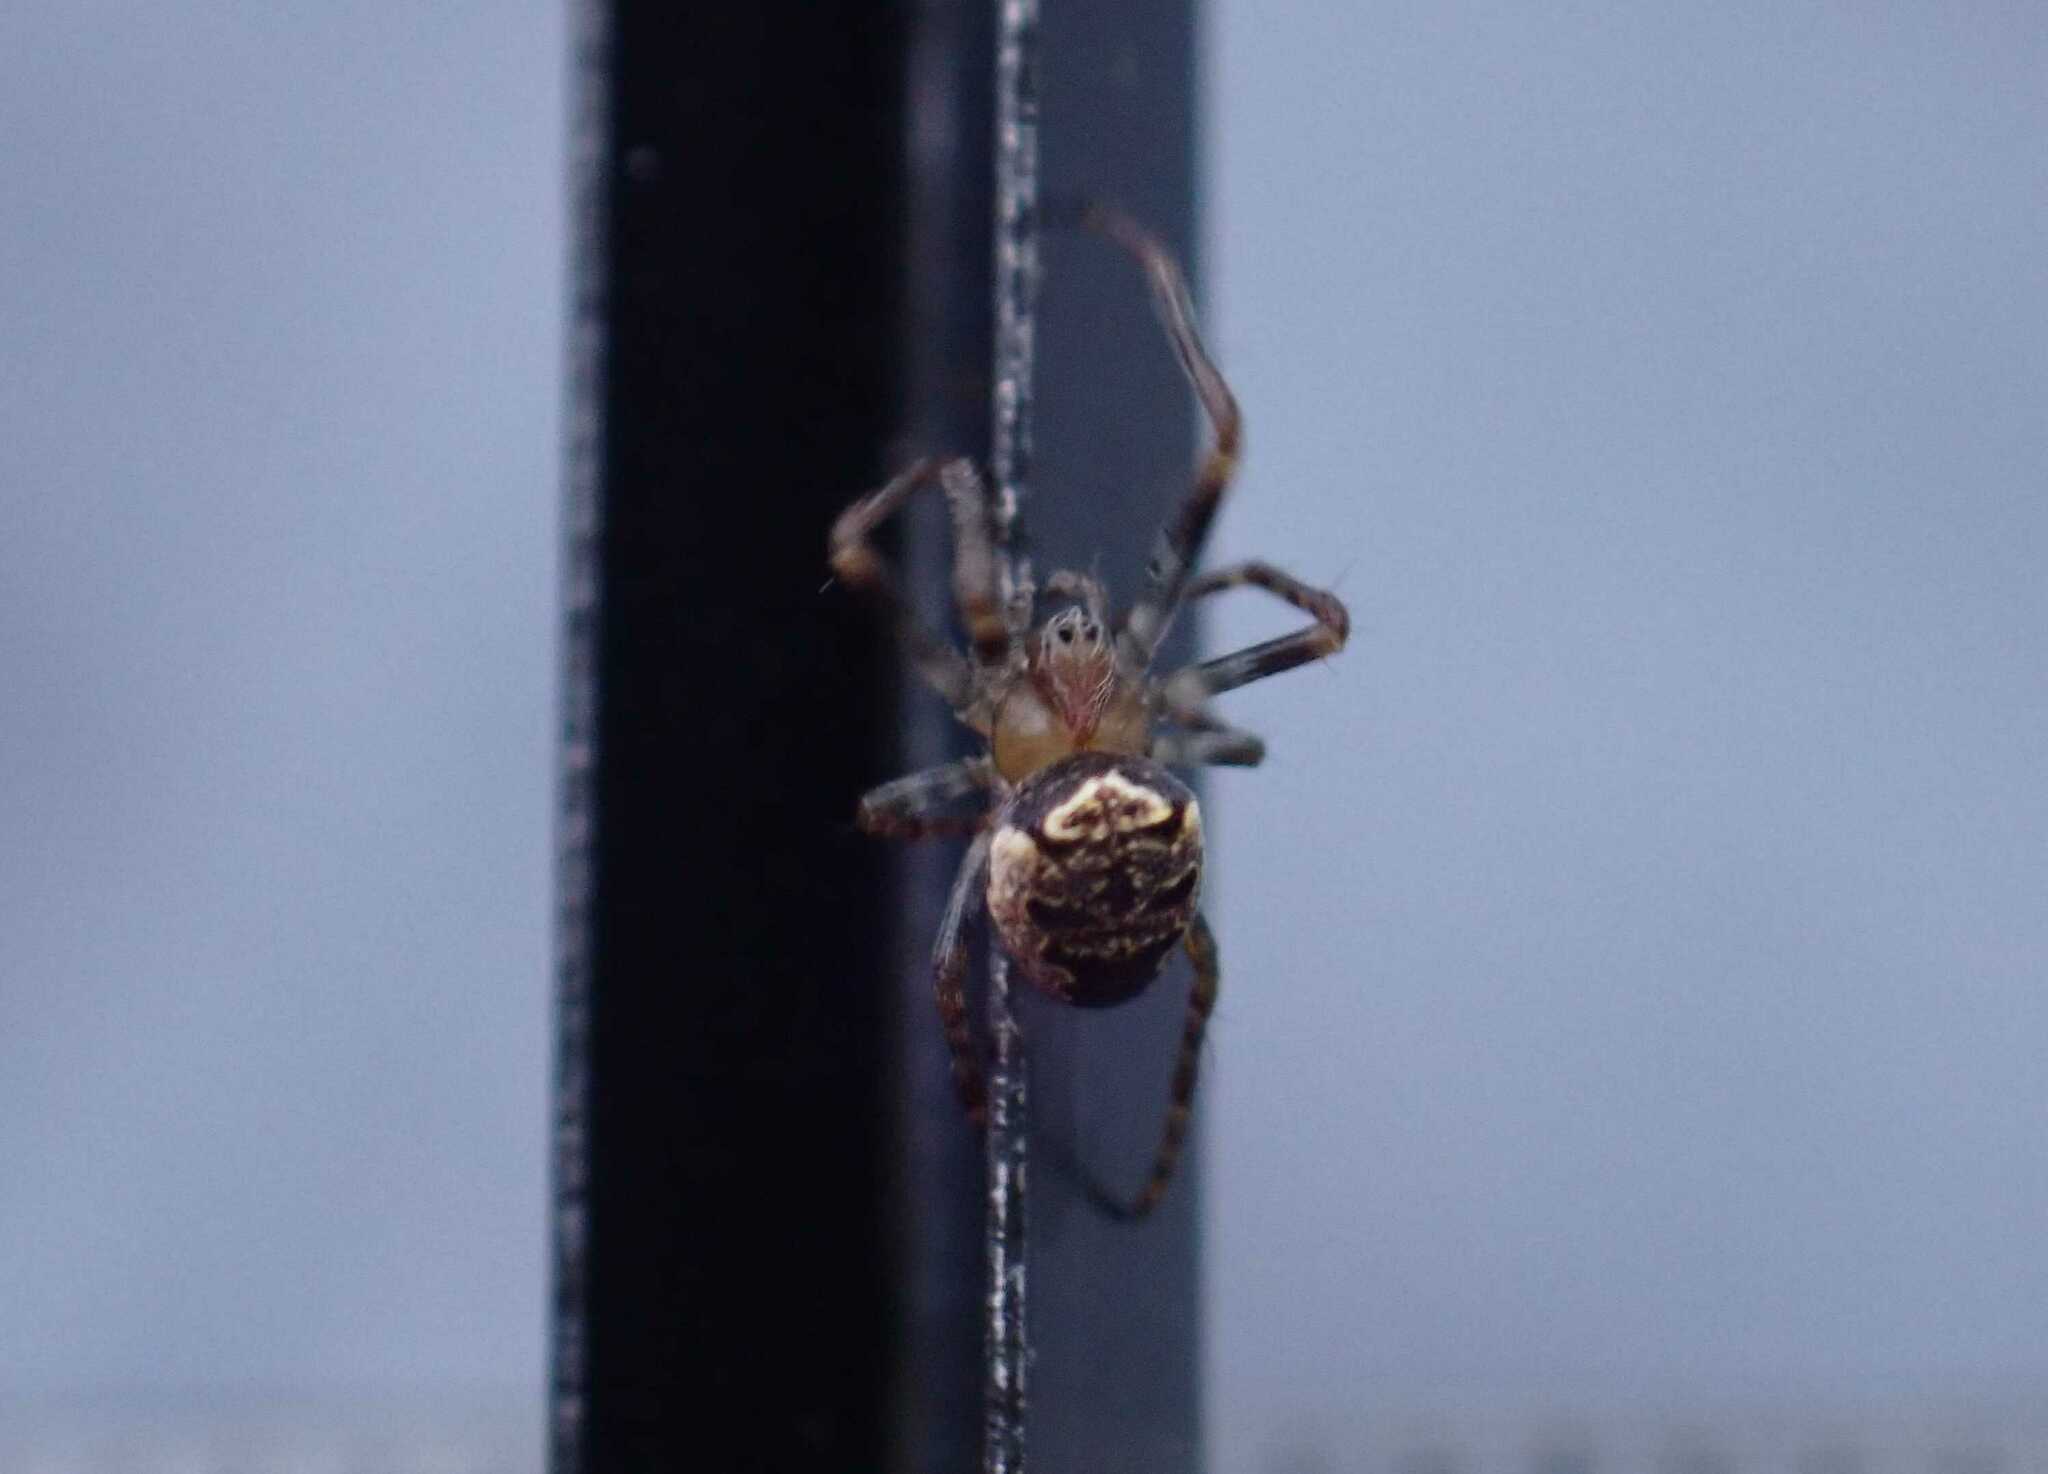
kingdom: Animalia
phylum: Arthropoda
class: Arachnida
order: Araneae
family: Araneidae
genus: Zilla
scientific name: Zilla diodia
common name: Zilla diodia
